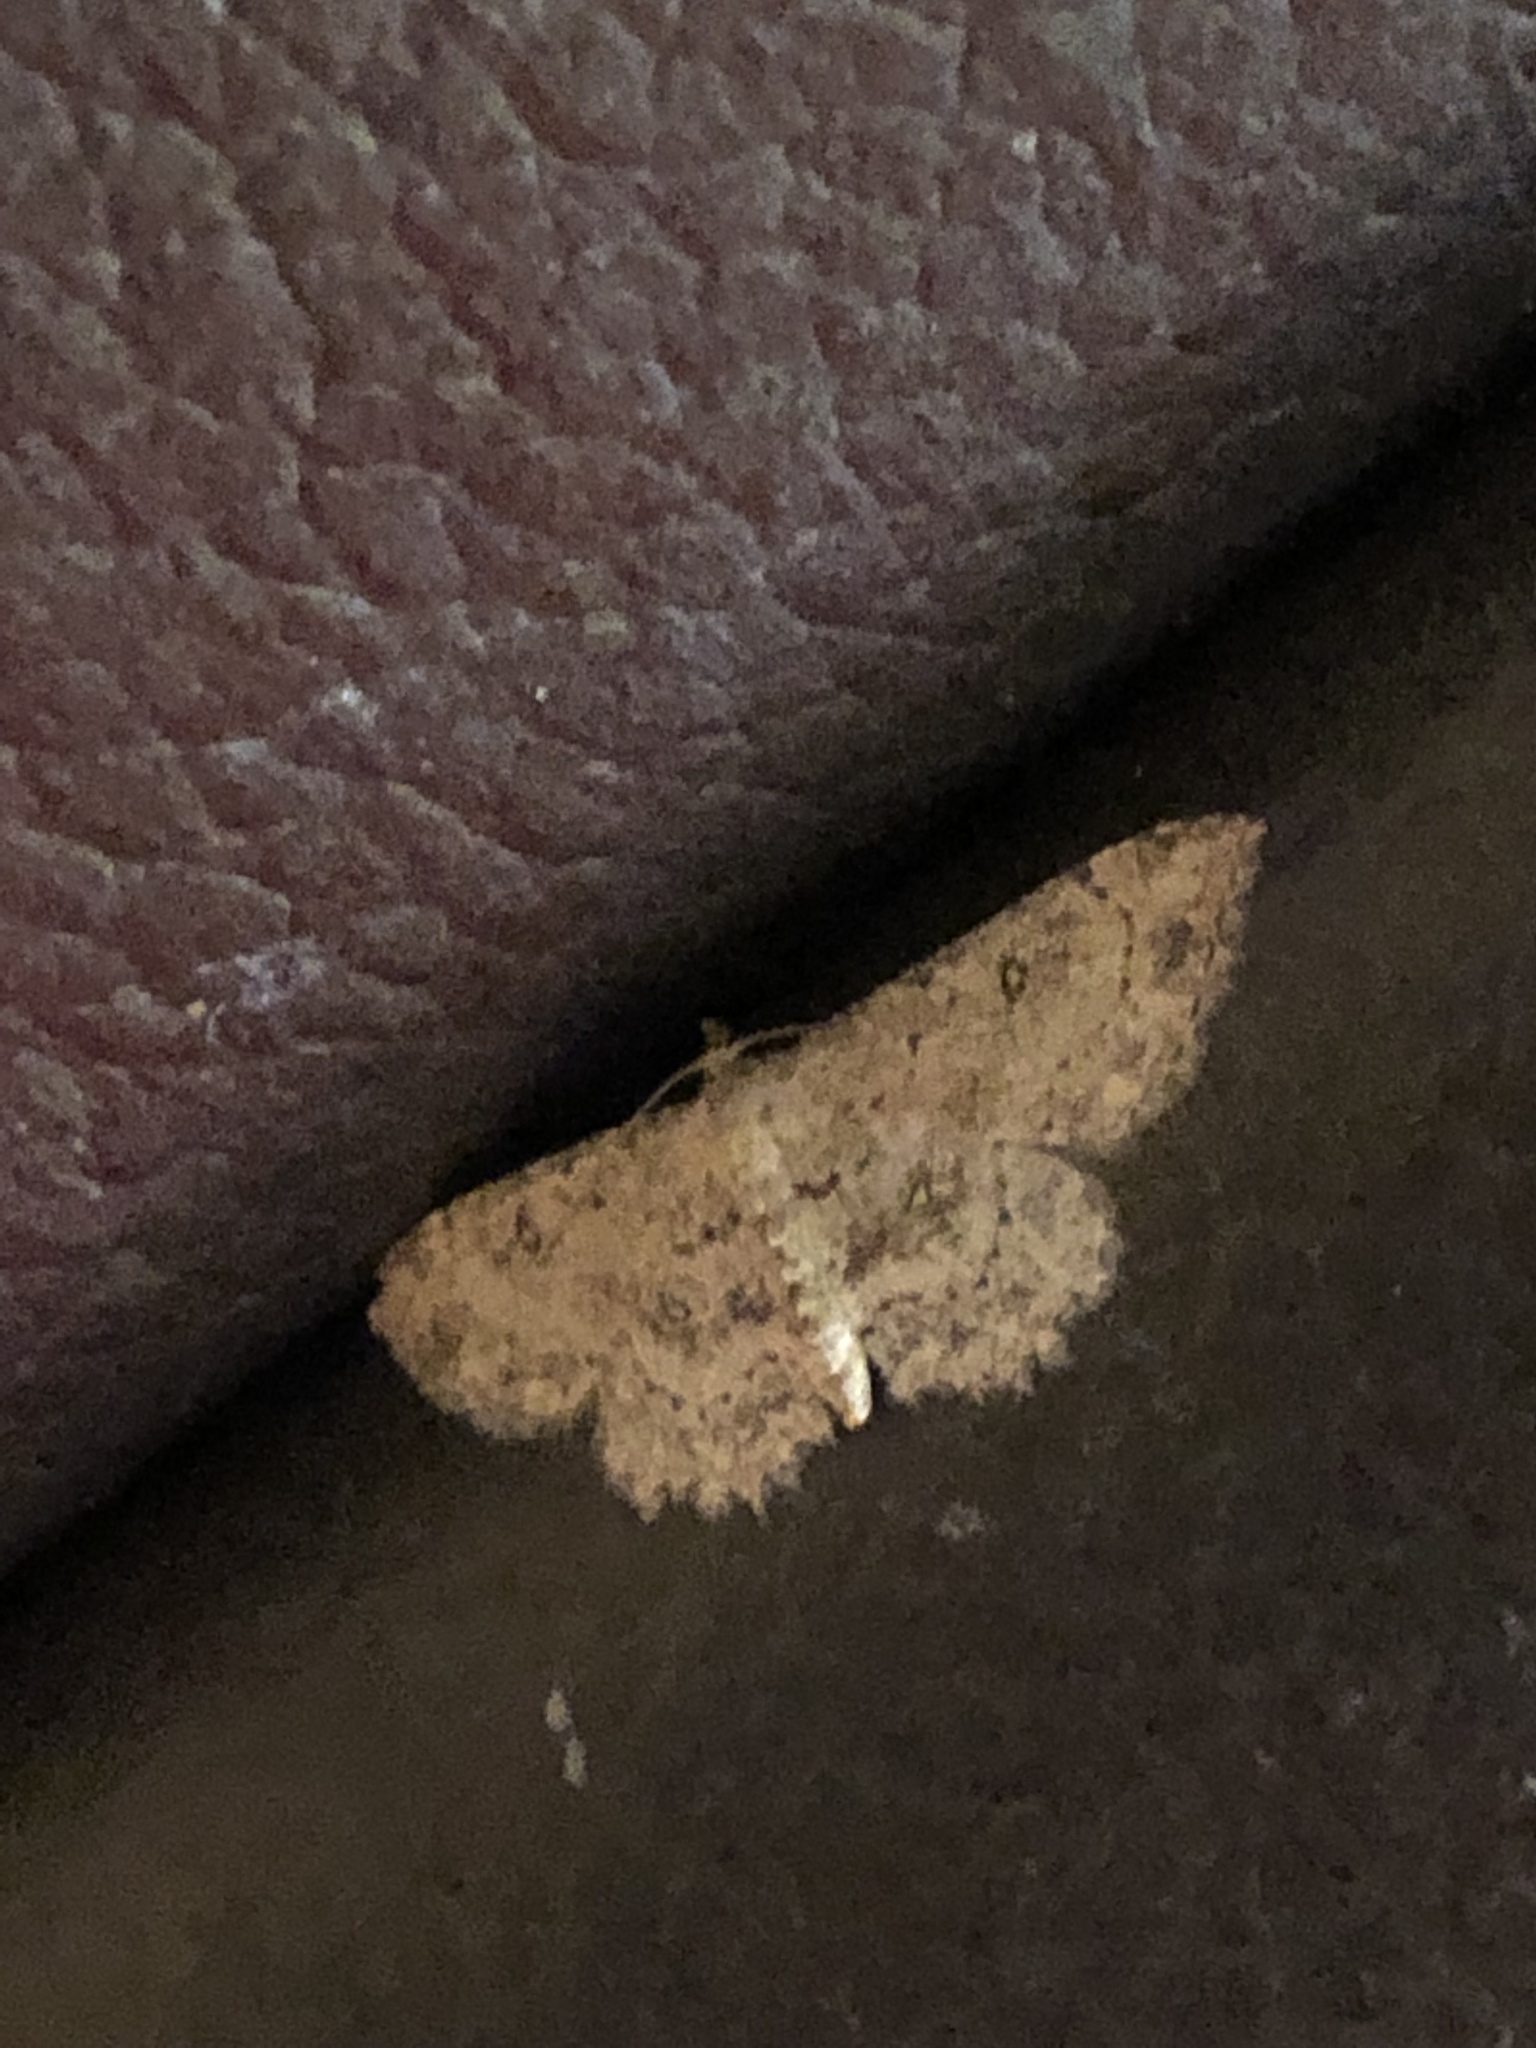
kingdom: Animalia
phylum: Arthropoda
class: Insecta
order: Lepidoptera
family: Geometridae
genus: Cyclophora
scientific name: Cyclophora nanaria
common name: Cankerworm
